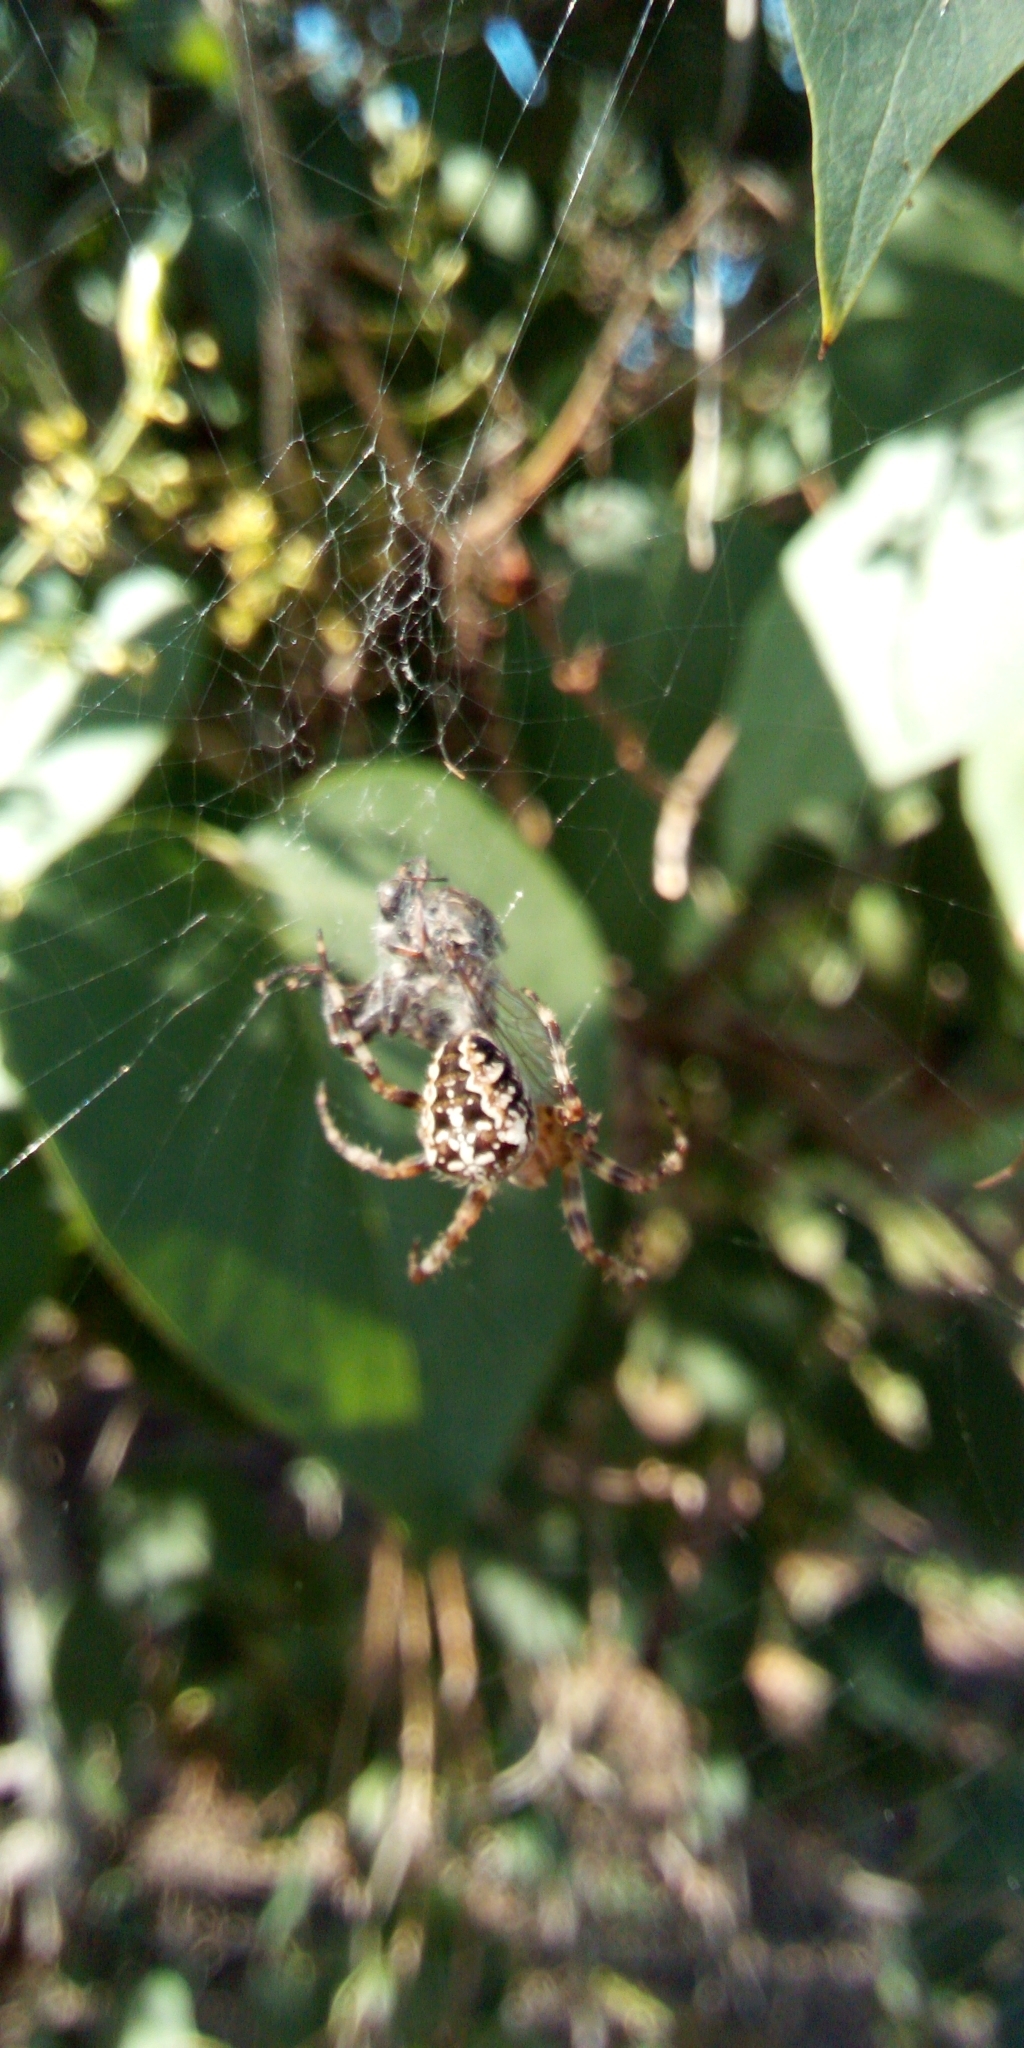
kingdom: Animalia
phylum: Arthropoda
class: Arachnida
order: Araneae
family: Araneidae
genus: Araneus
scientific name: Araneus diadematus
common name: Cross orbweaver
